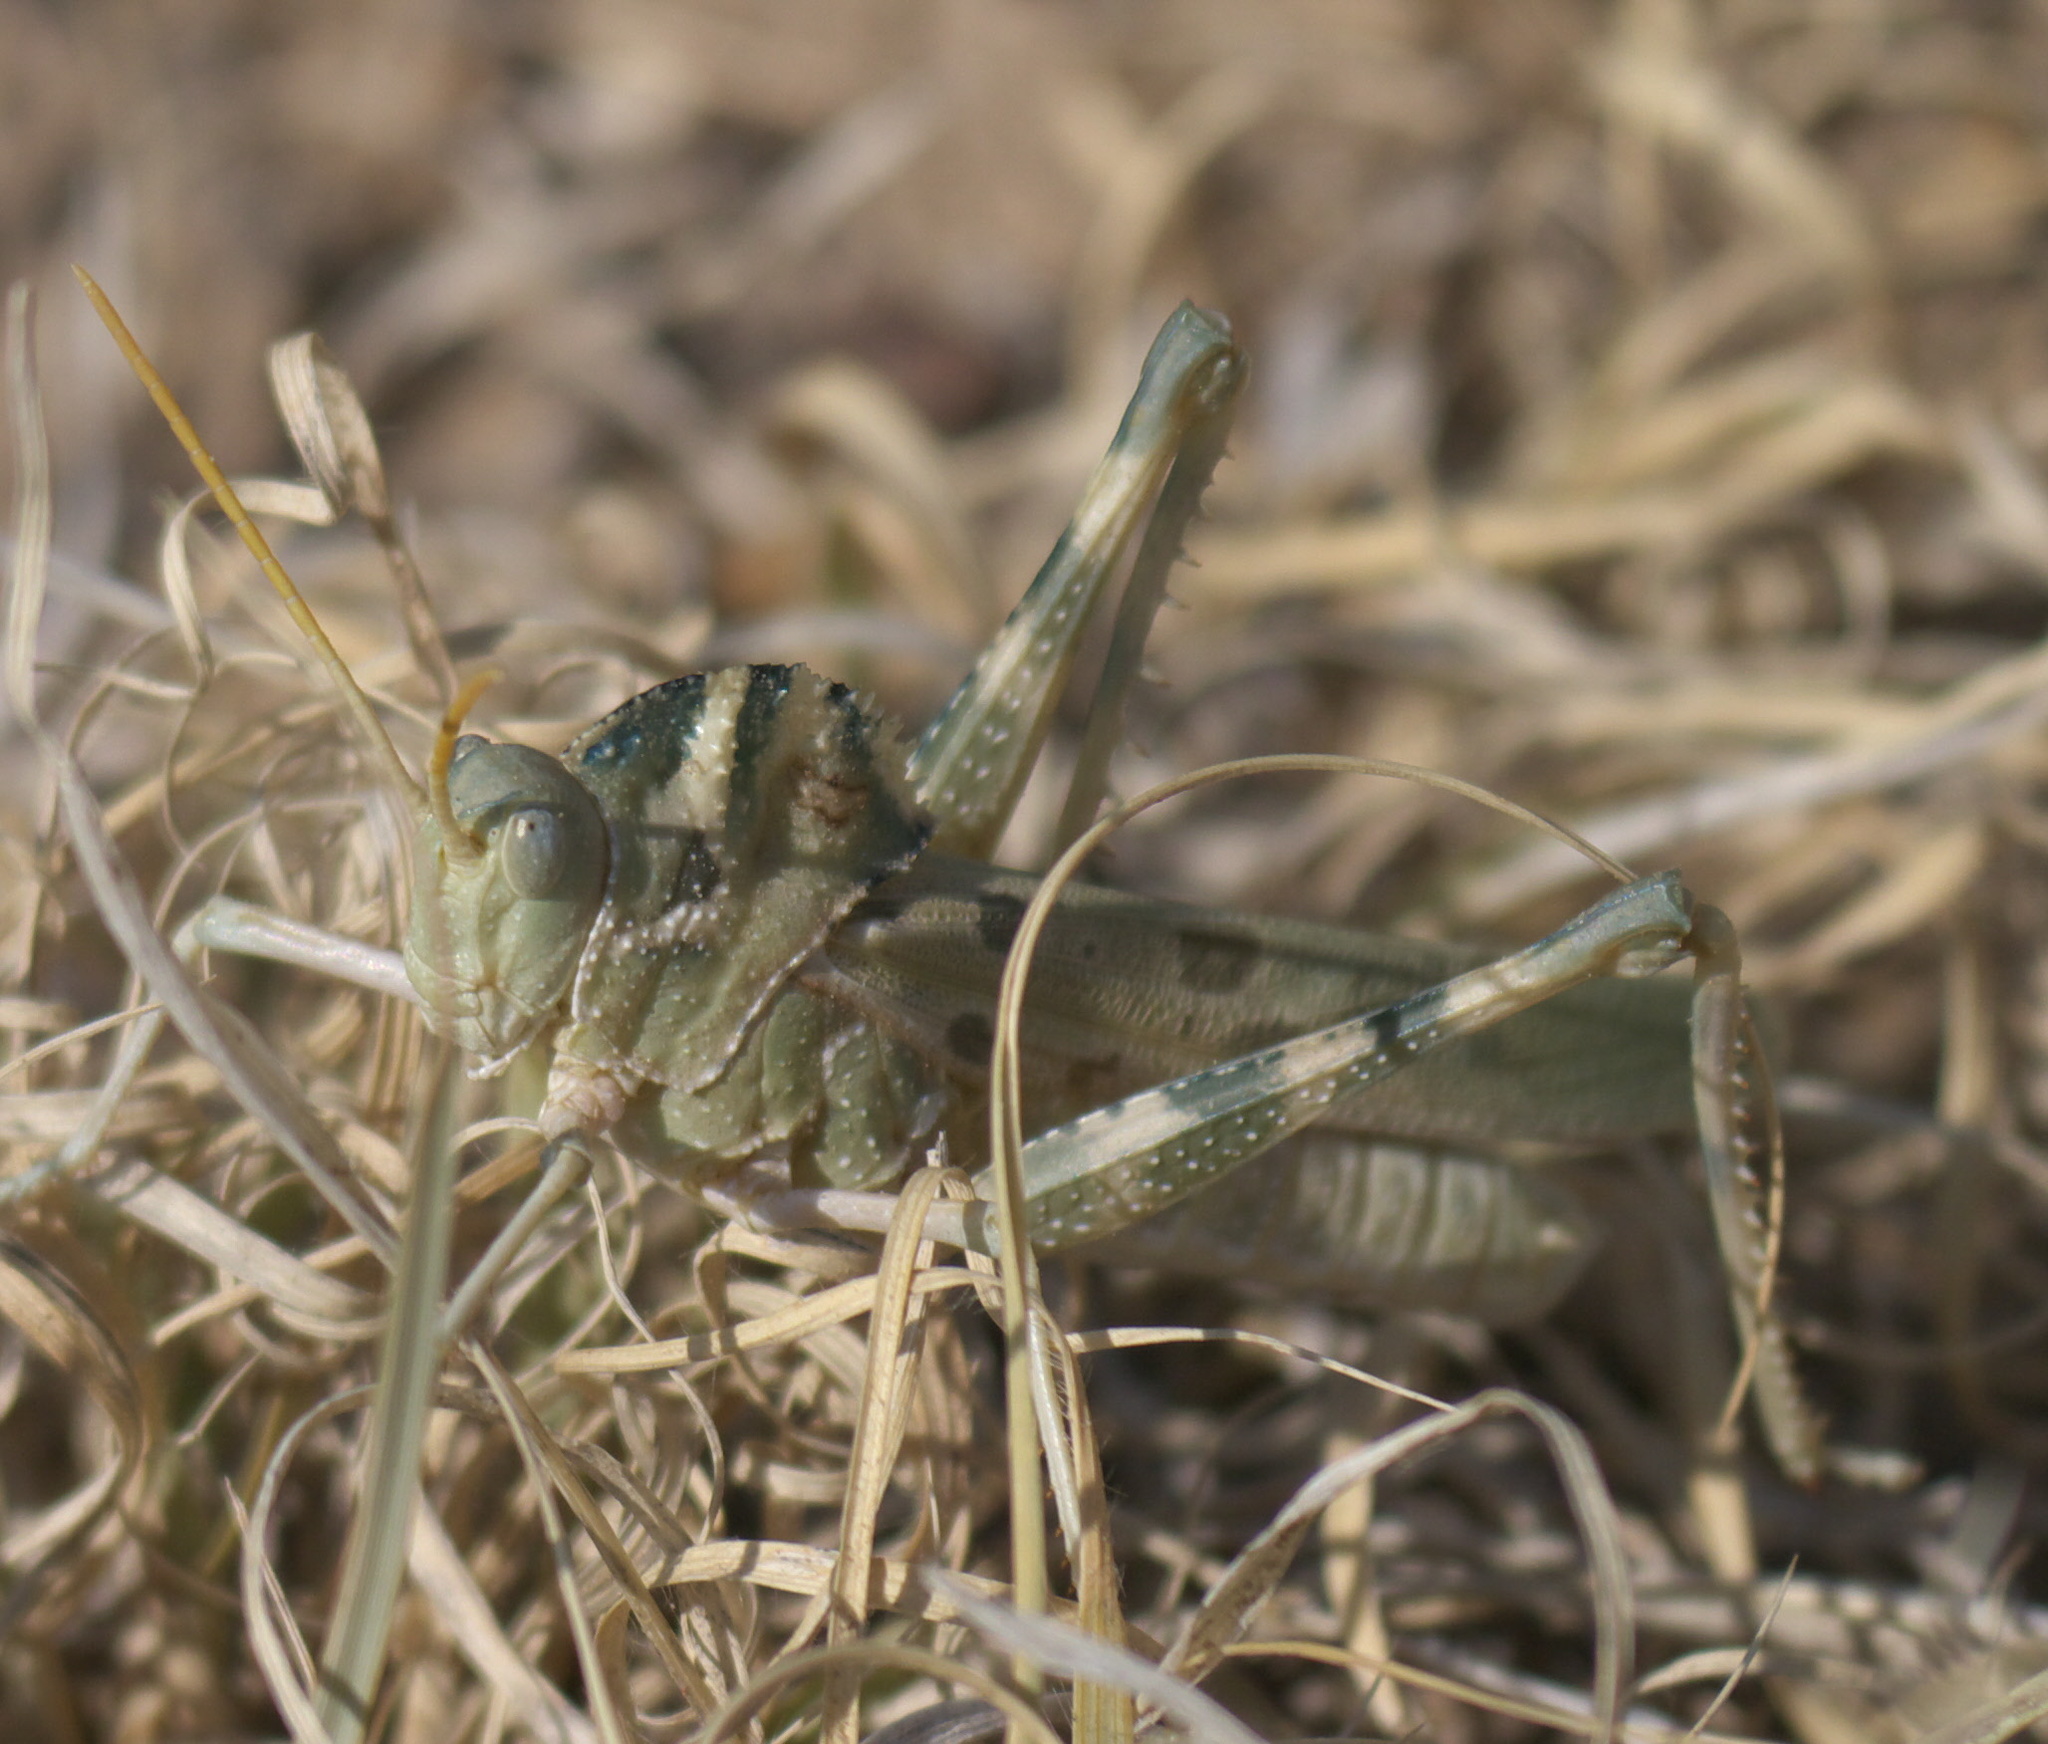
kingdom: Animalia
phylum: Arthropoda
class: Insecta
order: Orthoptera
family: Acrididae
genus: Tropidolophus
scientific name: Tropidolophus formosus
